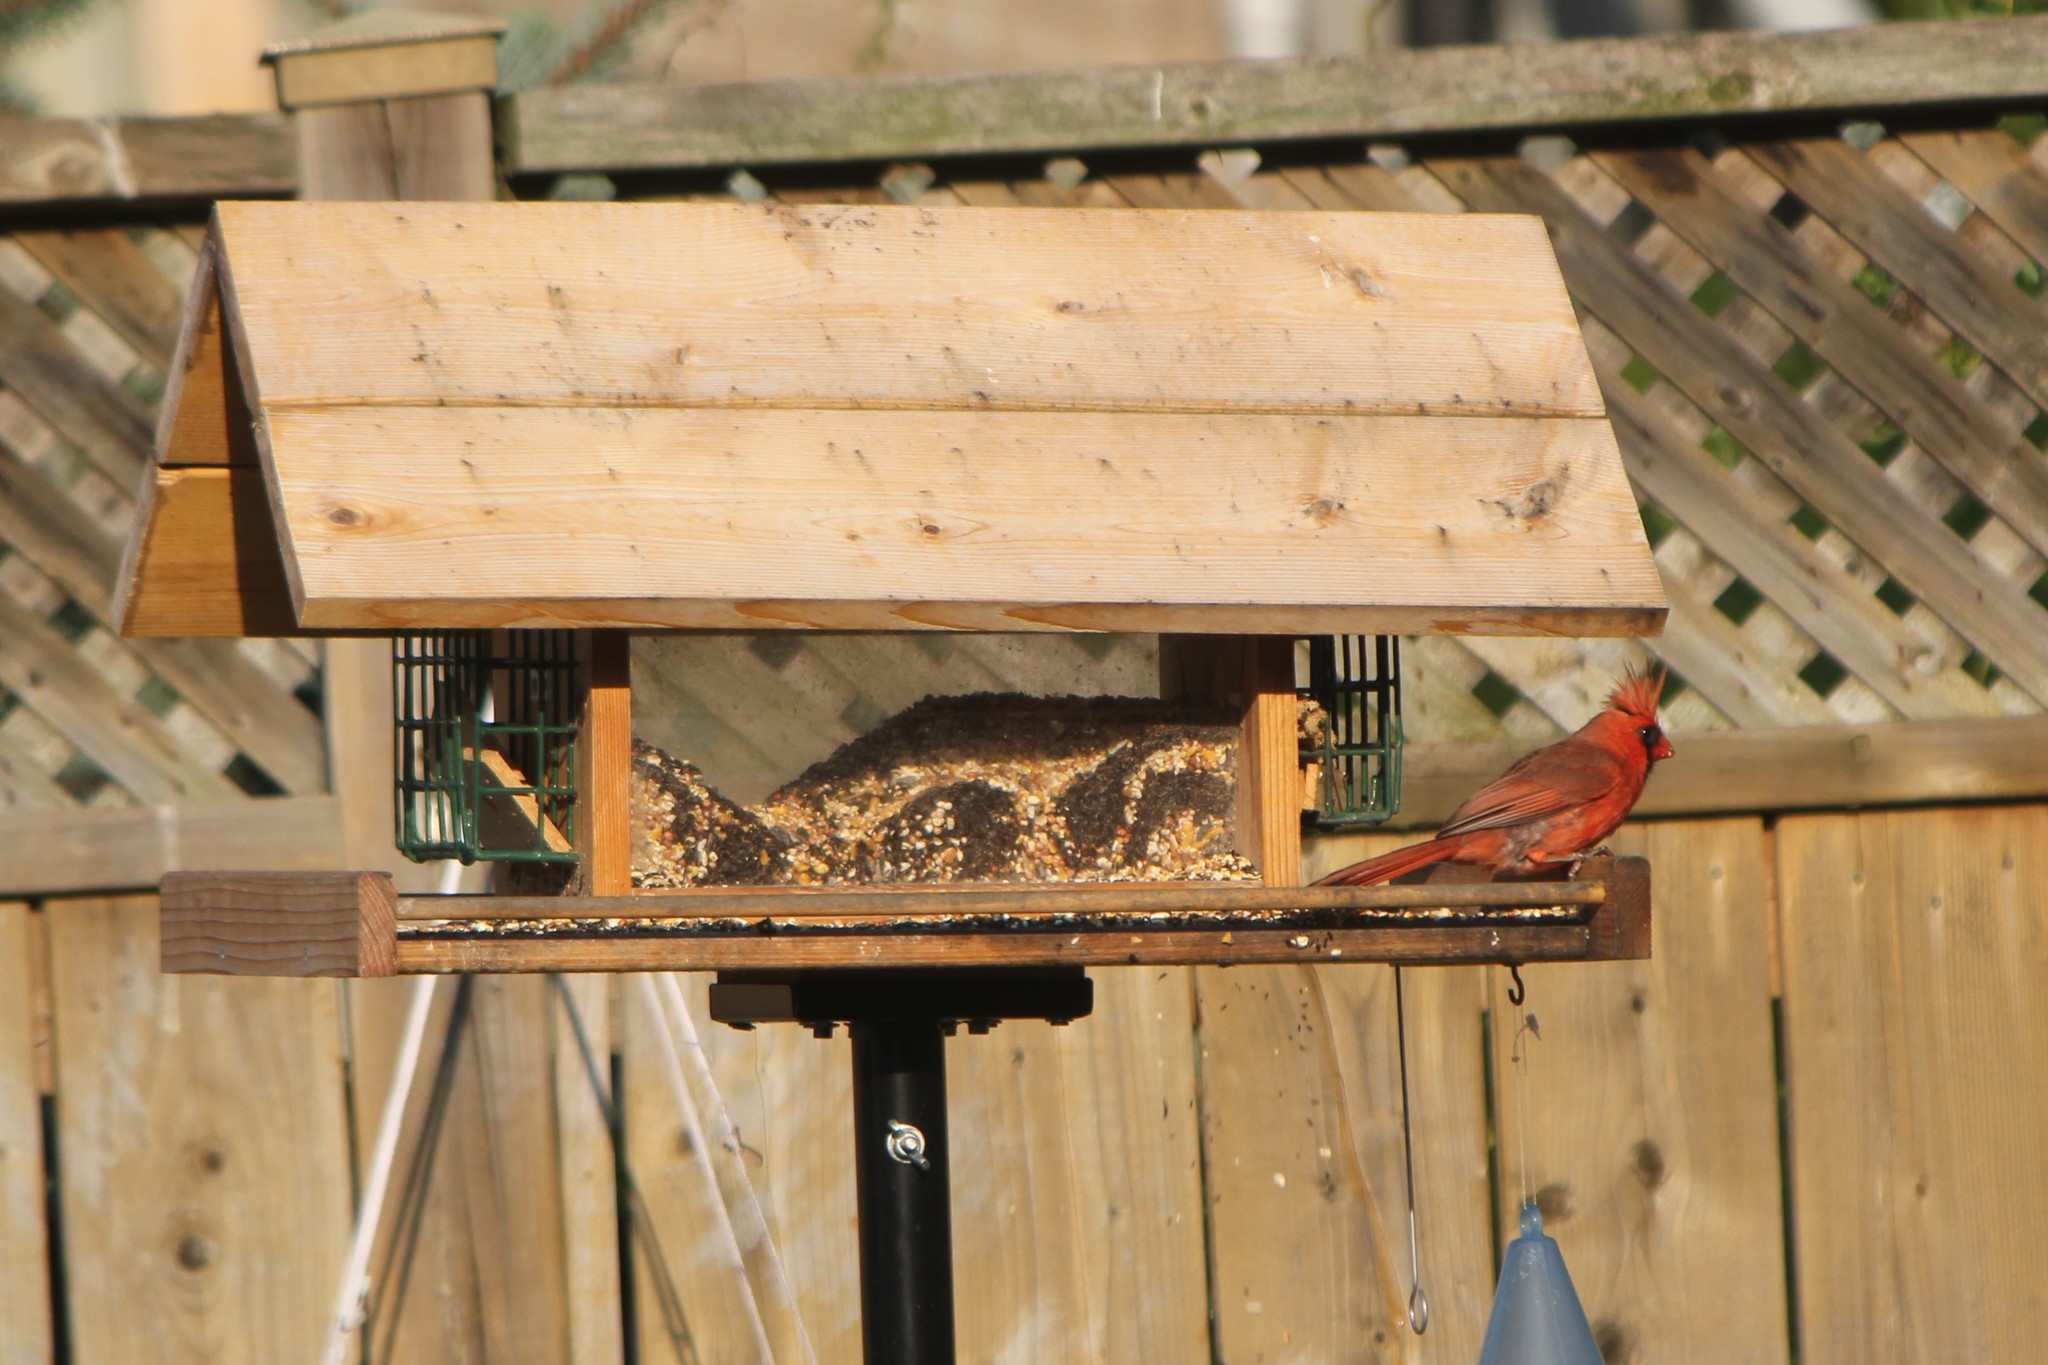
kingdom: Animalia
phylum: Chordata
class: Aves
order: Passeriformes
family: Cardinalidae
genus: Cardinalis
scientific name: Cardinalis cardinalis
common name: Northern cardinal
